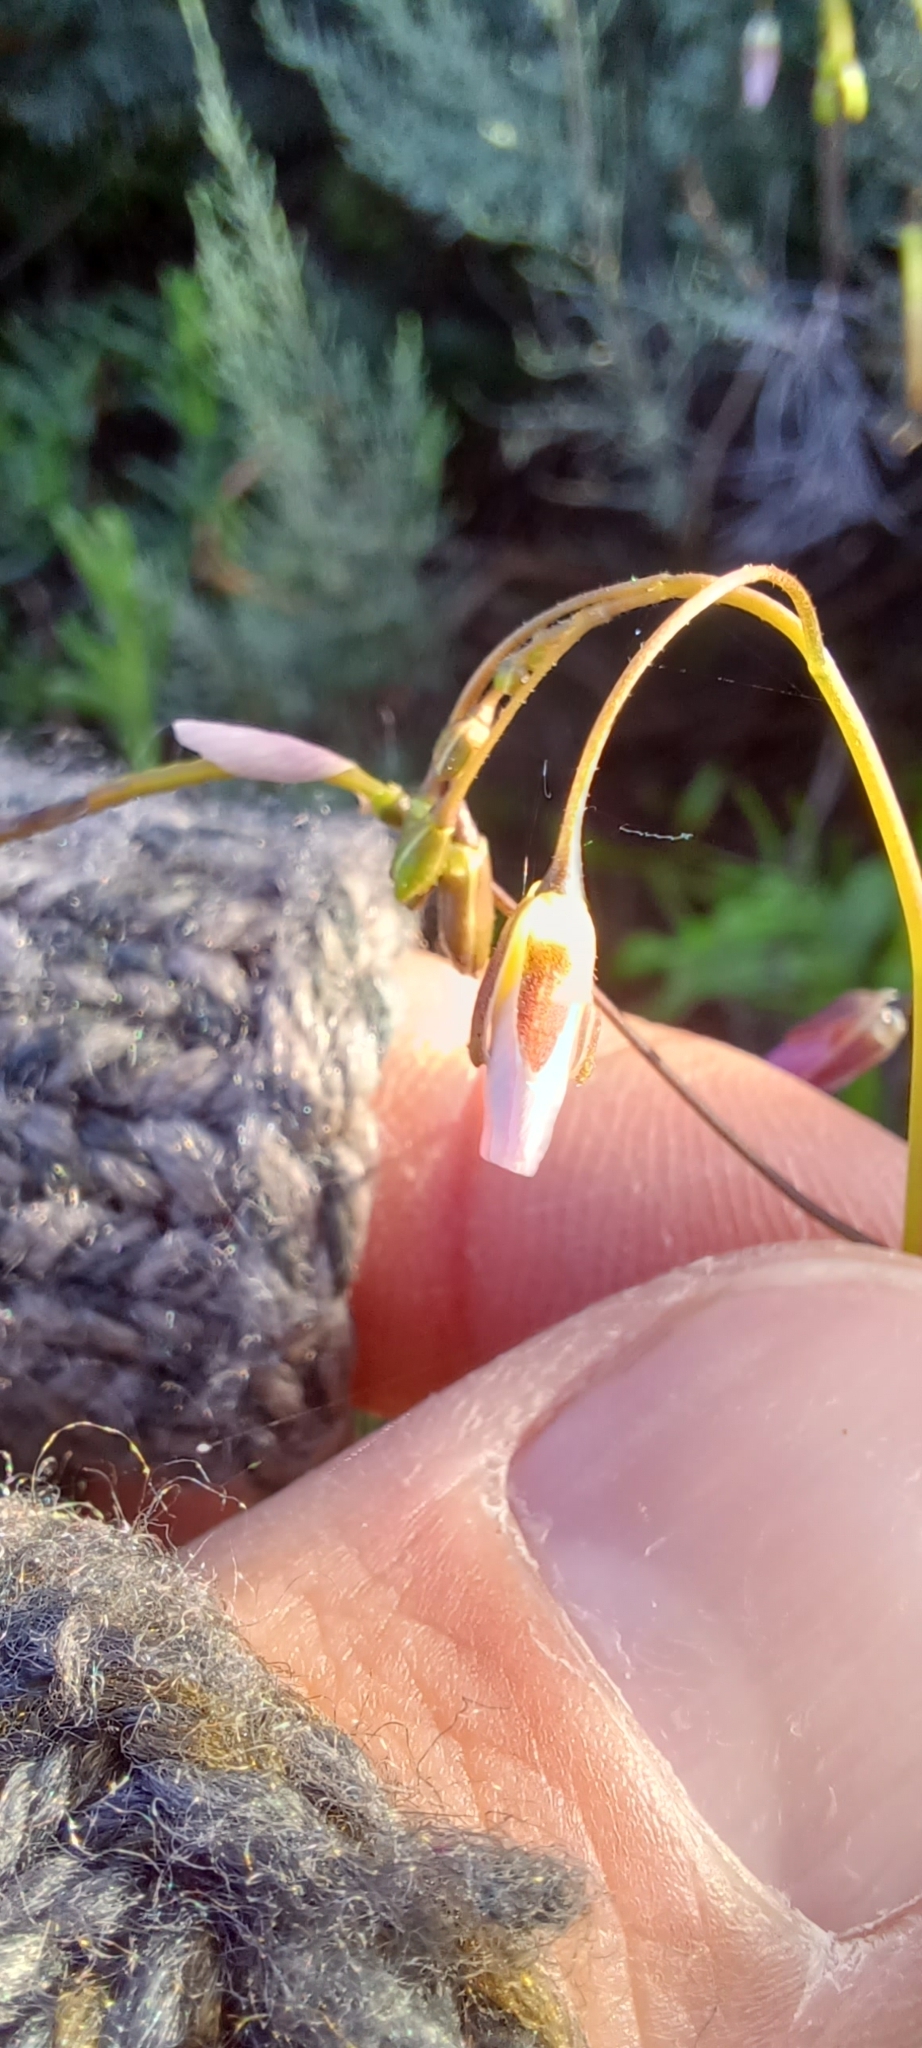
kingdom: Plantae
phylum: Tracheophyta
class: Magnoliopsida
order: Brassicales
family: Brassicaceae
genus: Heliophila
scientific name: Heliophila crithmifolia
